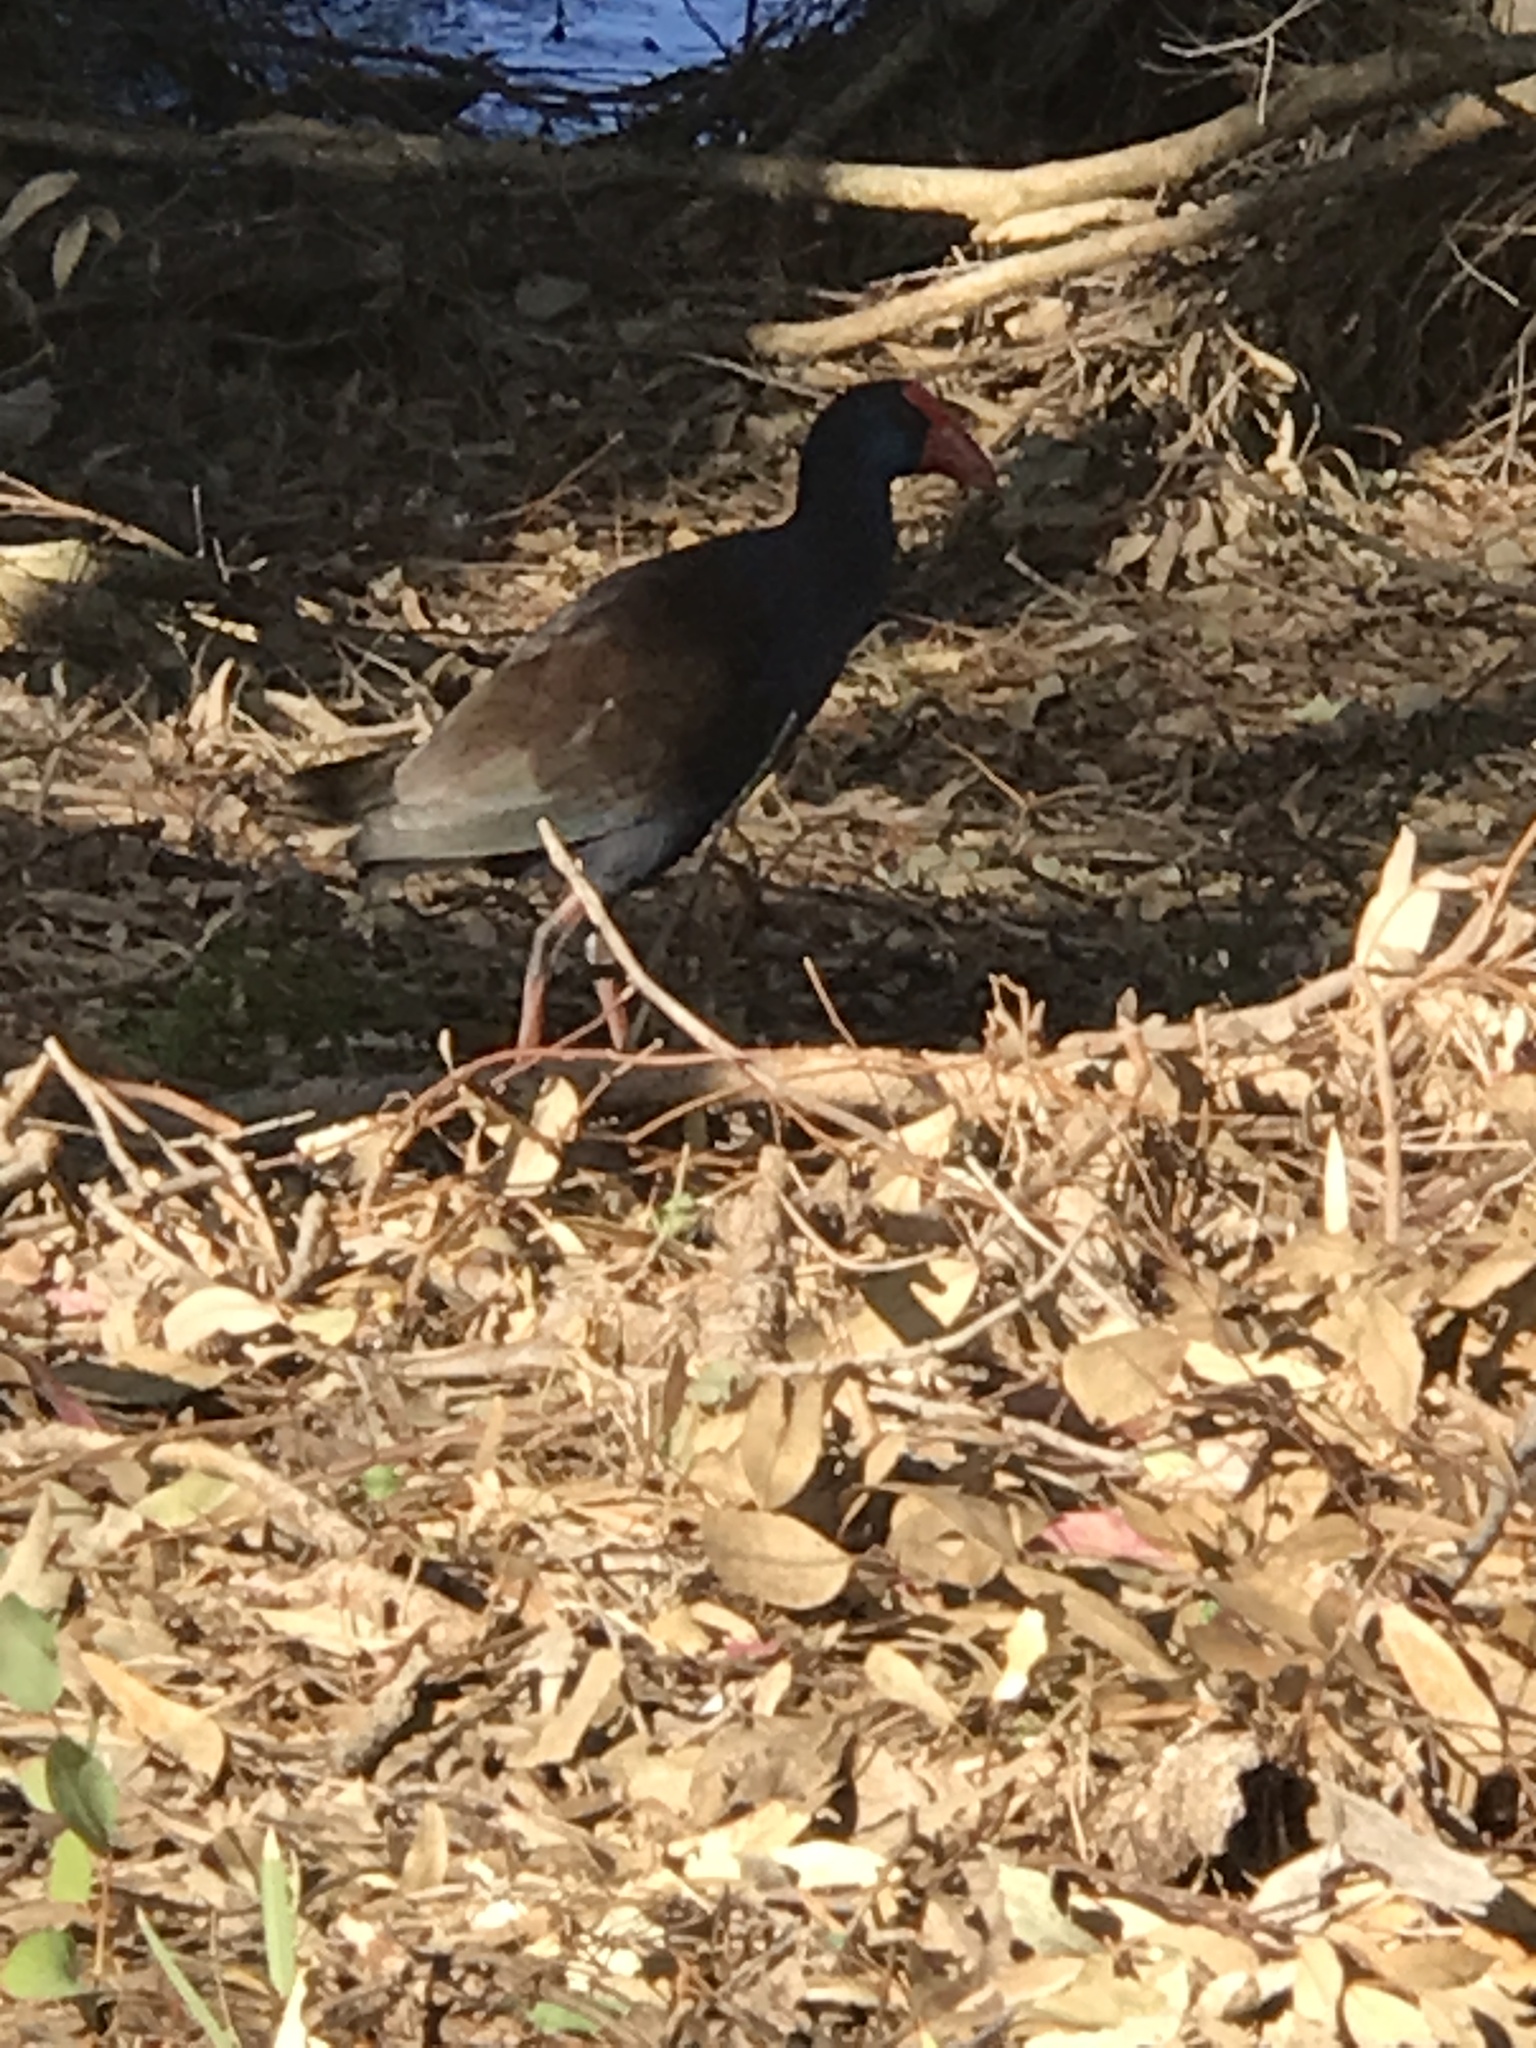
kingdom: Animalia
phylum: Chordata
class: Aves
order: Gruiformes
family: Rallidae
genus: Porphyrio
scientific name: Porphyrio melanotus
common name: Australasian swamphen
